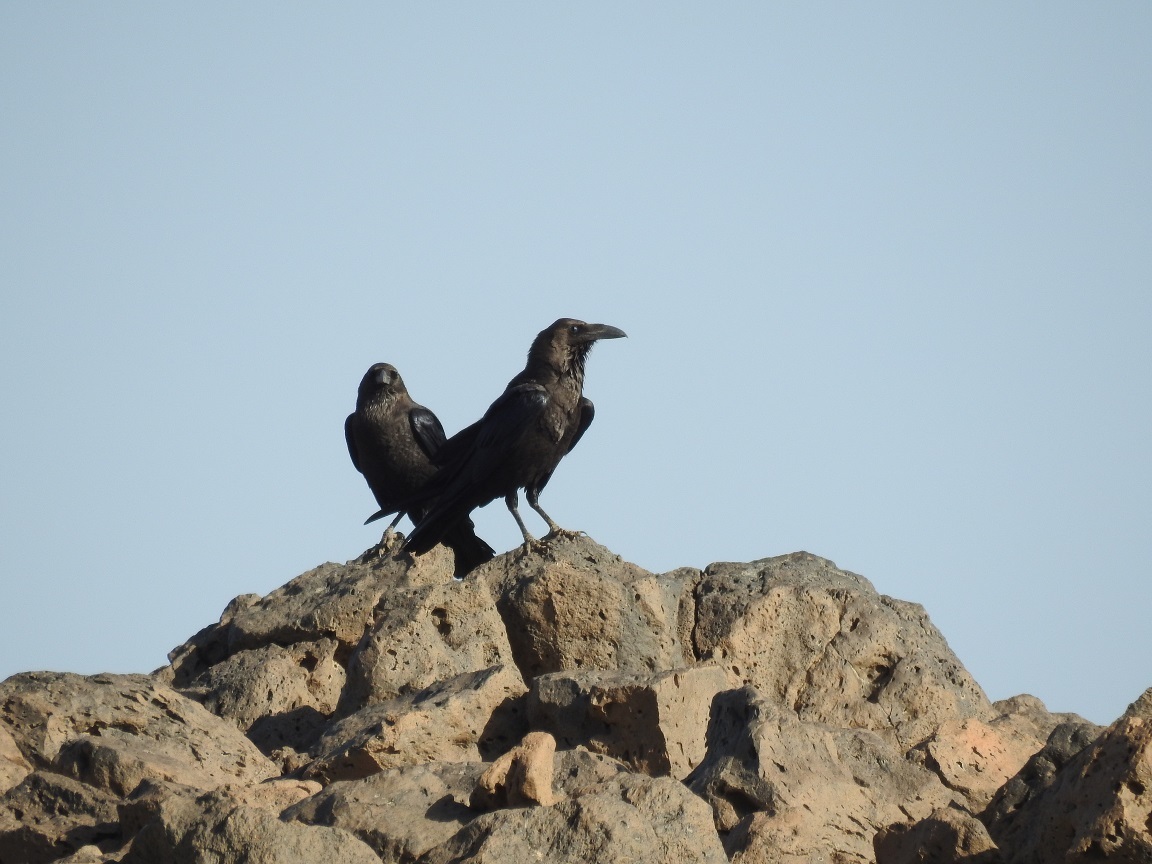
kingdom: Animalia
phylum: Chordata
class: Aves
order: Passeriformes
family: Corvidae
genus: Corvus
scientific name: Corvus ruficollis
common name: Brown-necked raven
